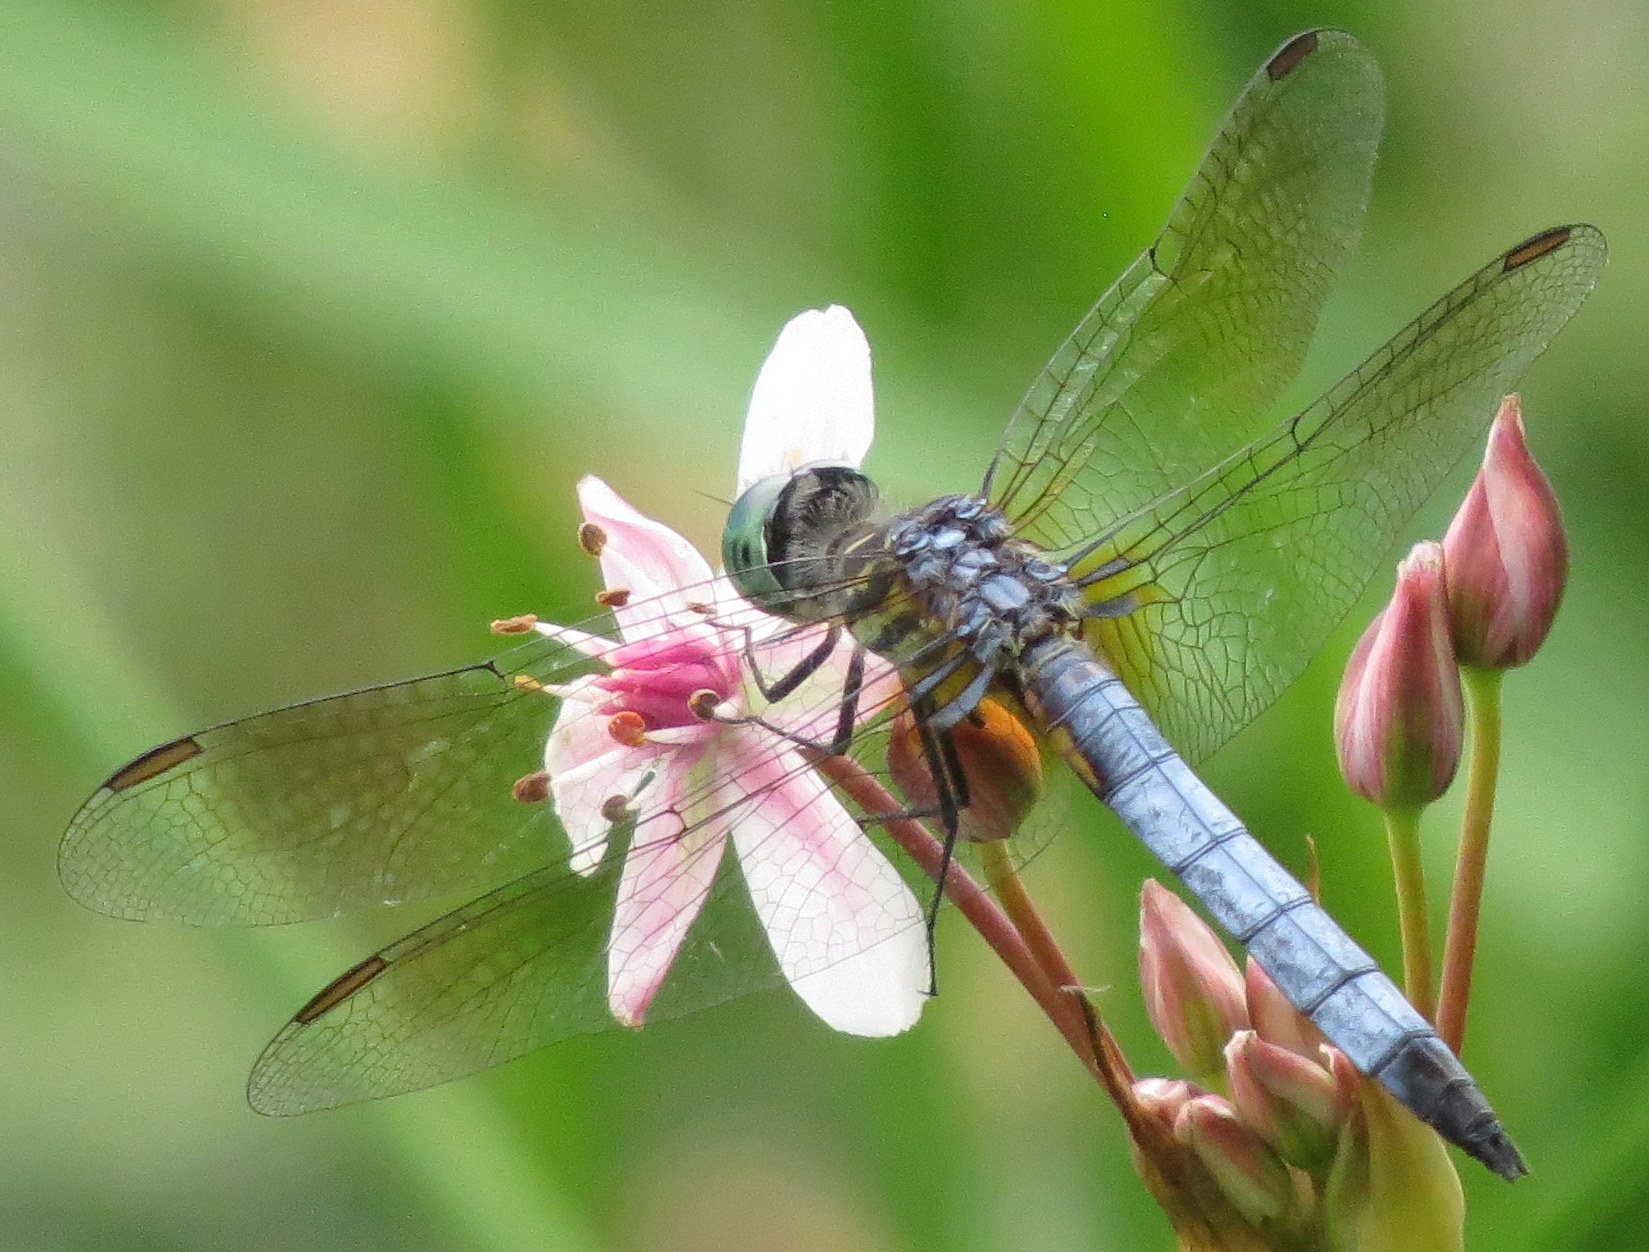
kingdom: Animalia
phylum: Arthropoda
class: Insecta
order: Odonata
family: Libellulidae
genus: Pachydiplax
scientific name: Pachydiplax longipennis
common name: Blue dasher
